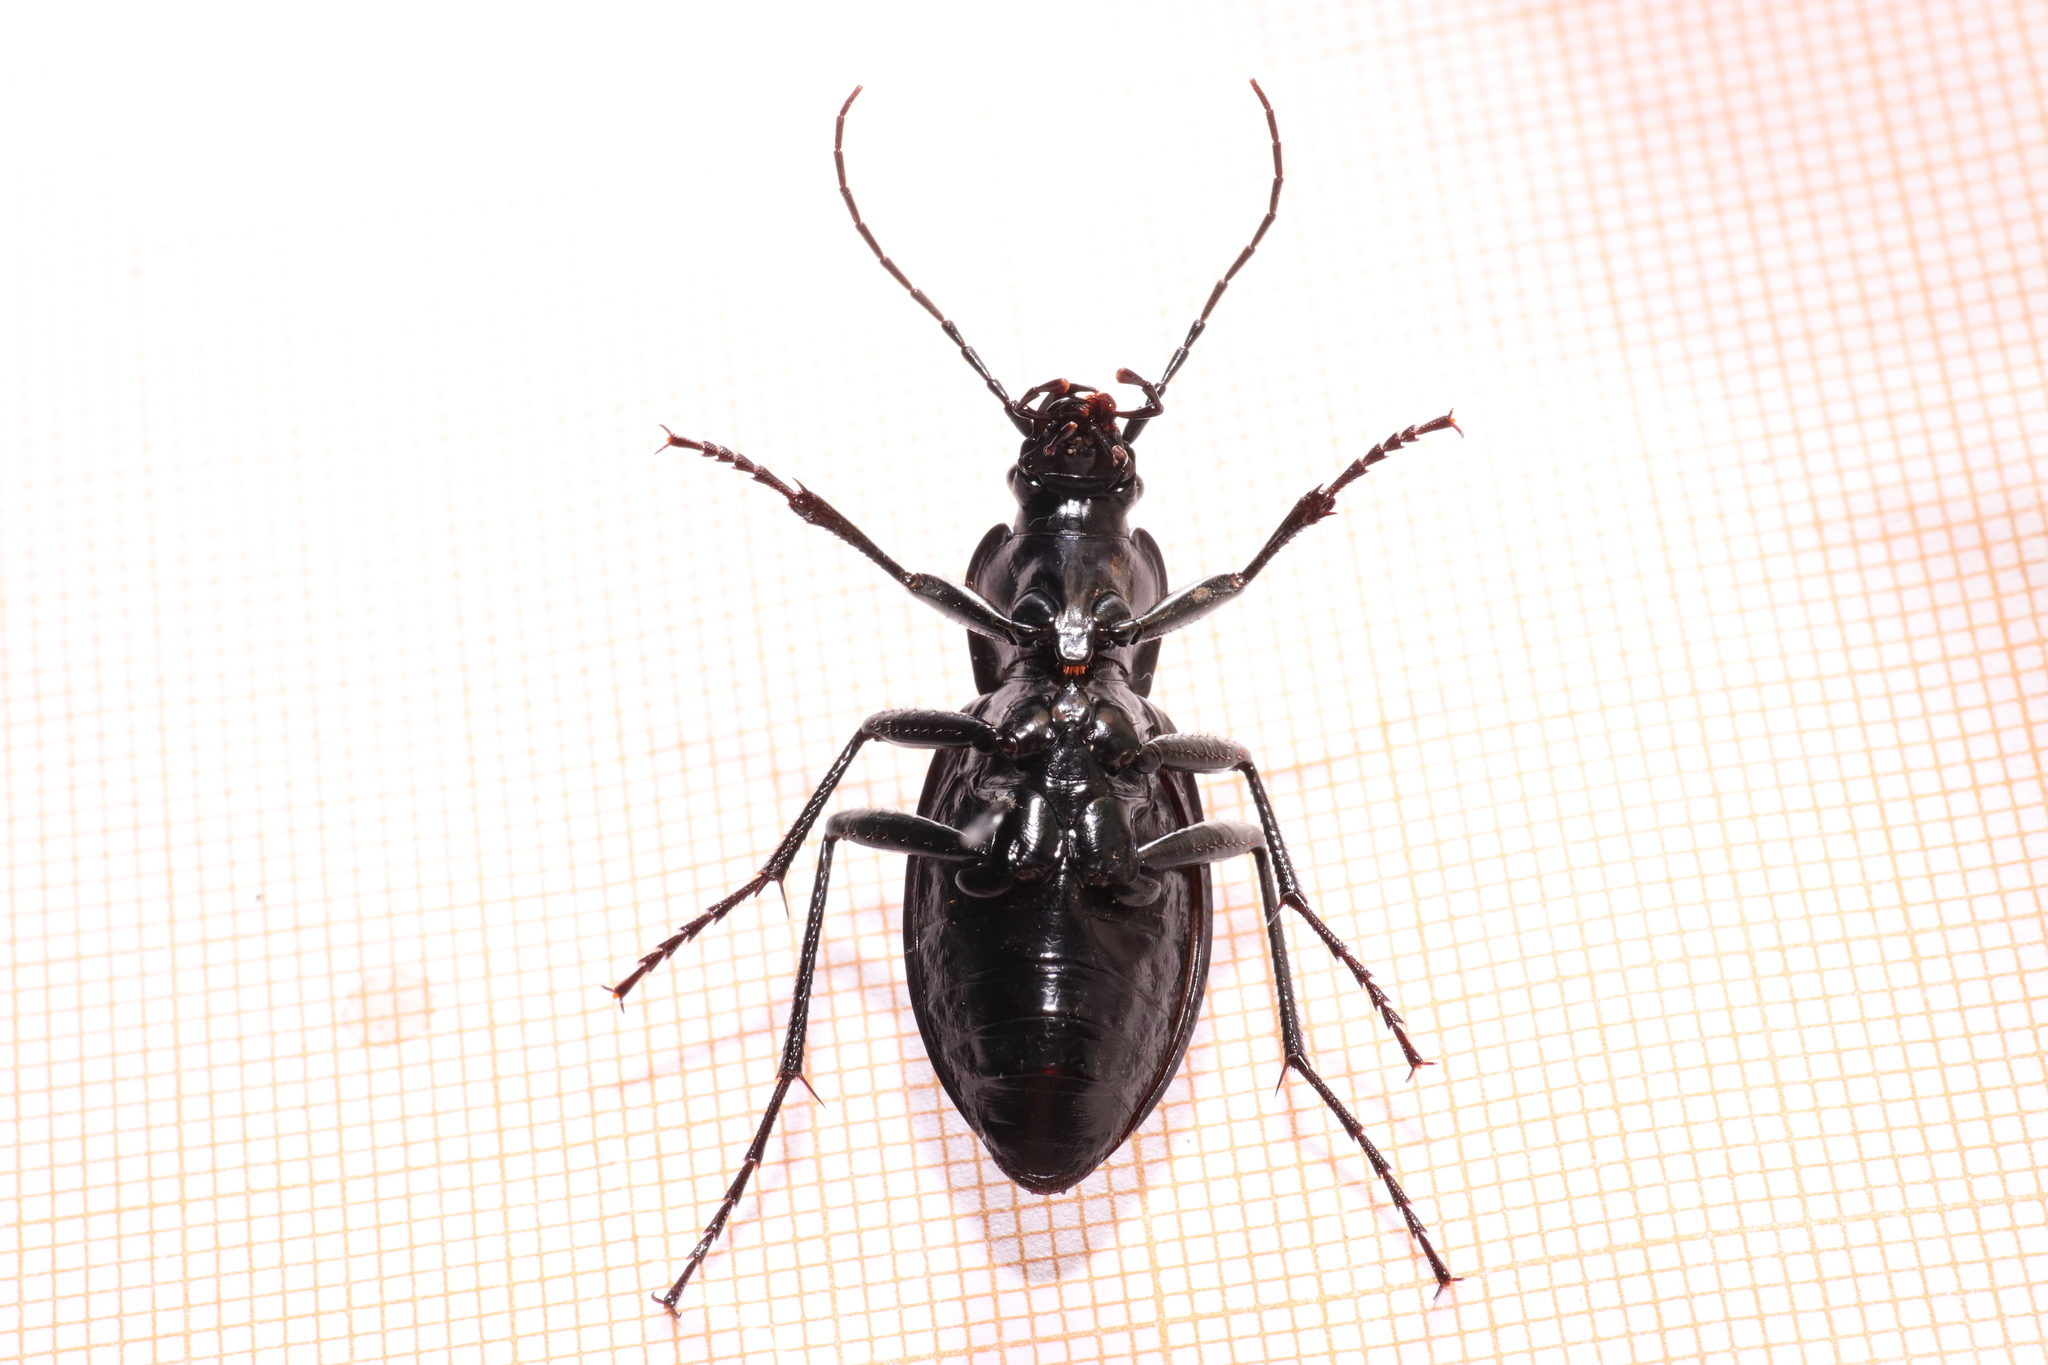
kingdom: Animalia
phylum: Arthropoda
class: Insecta
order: Coleoptera
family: Carabidae
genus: Carabus
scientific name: Carabus problematicus
